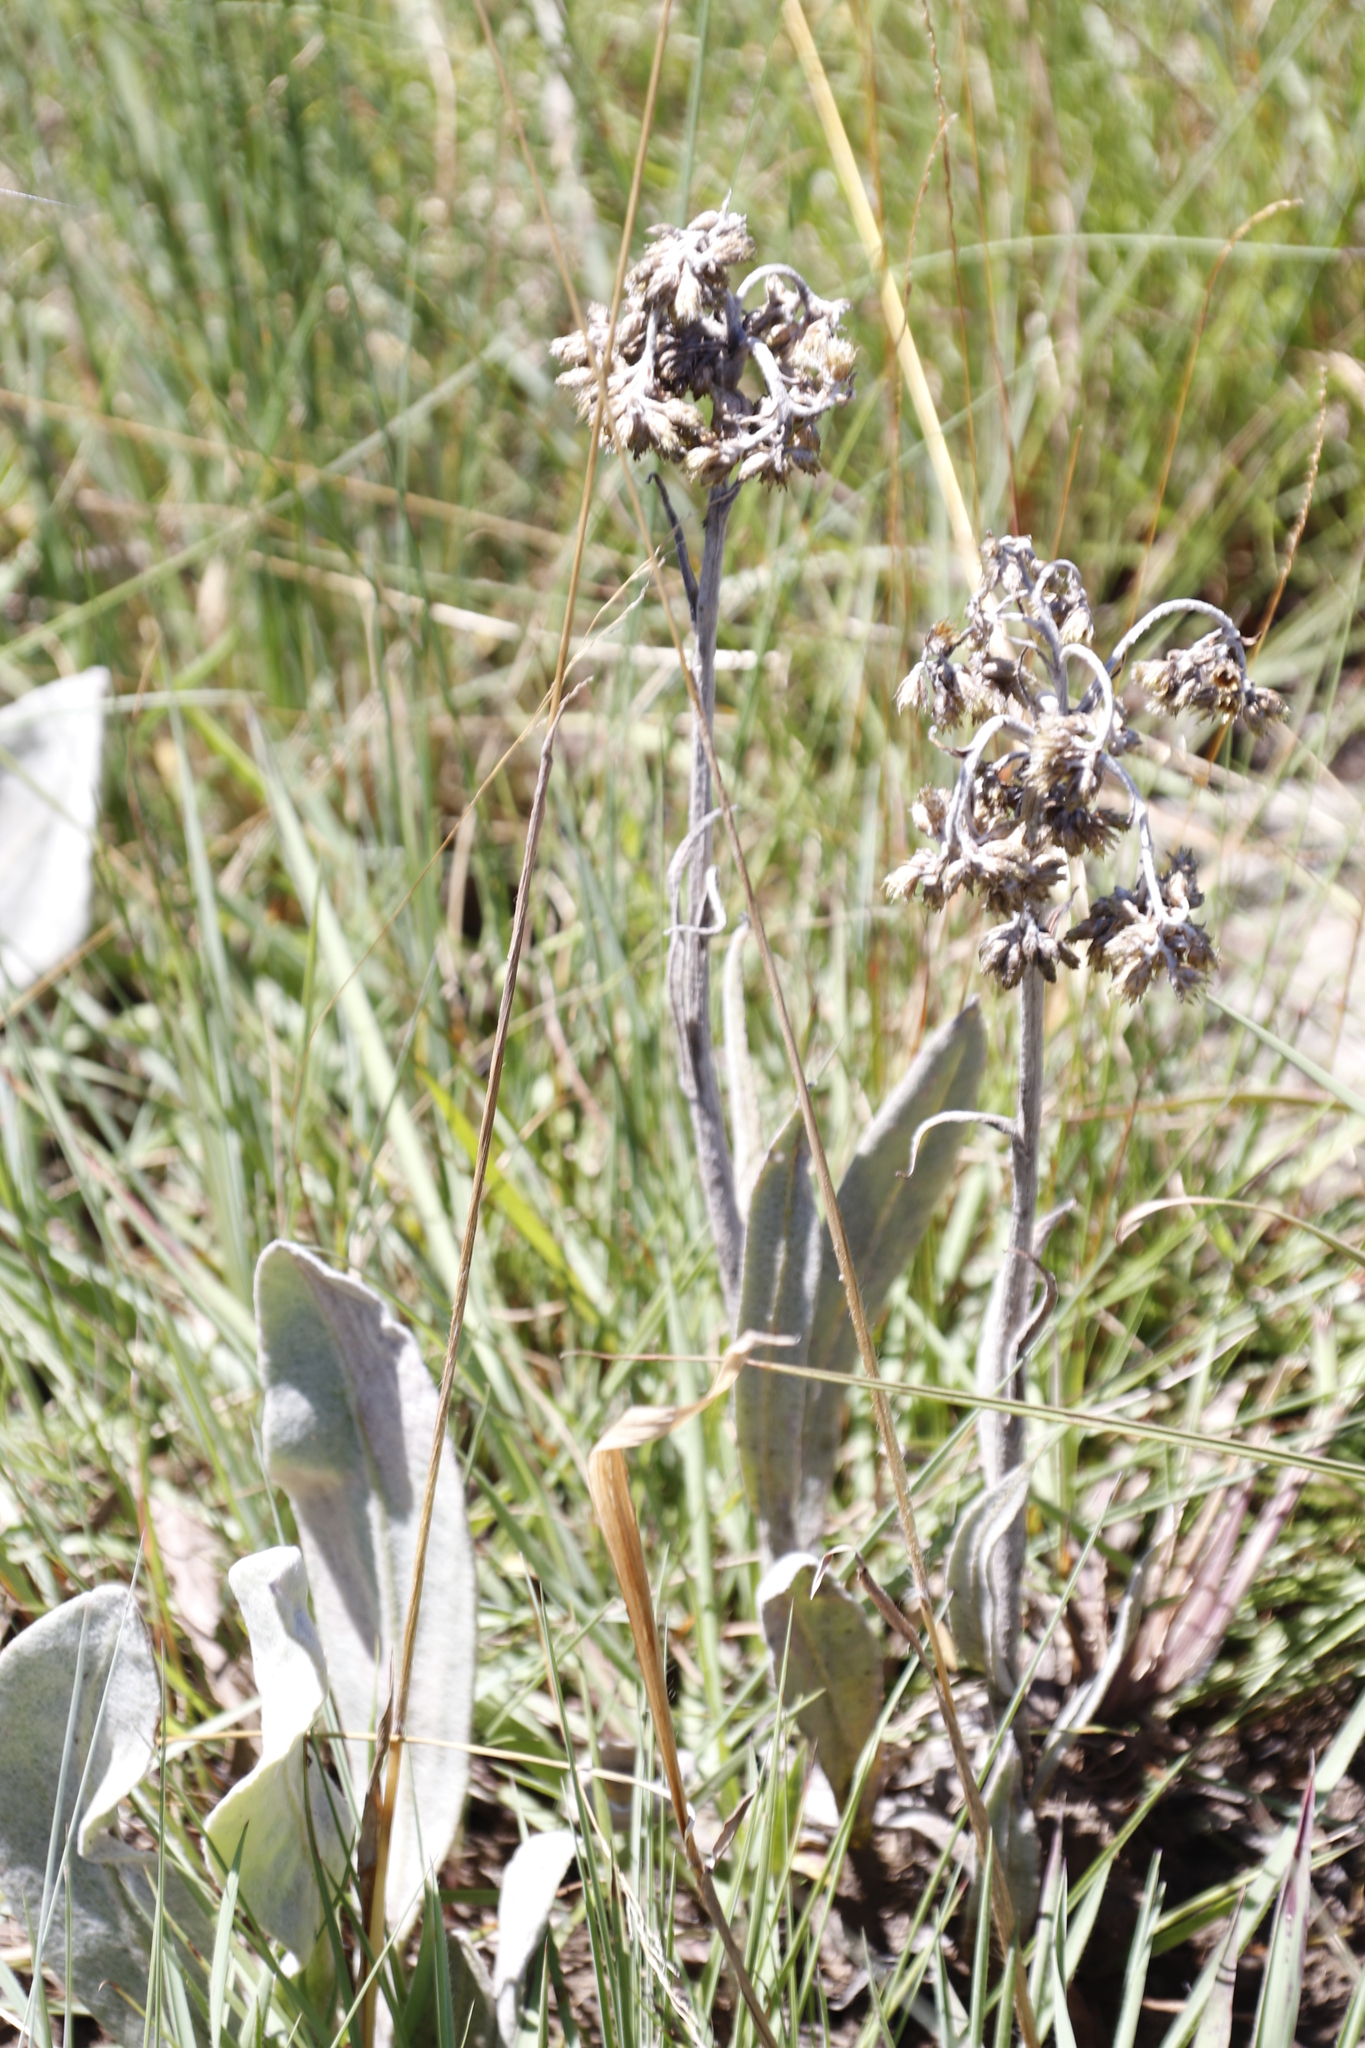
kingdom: Plantae
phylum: Tracheophyta
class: Magnoliopsida
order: Asterales
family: Asteraceae
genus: Helichrysum
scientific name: Helichrysum acutatum
